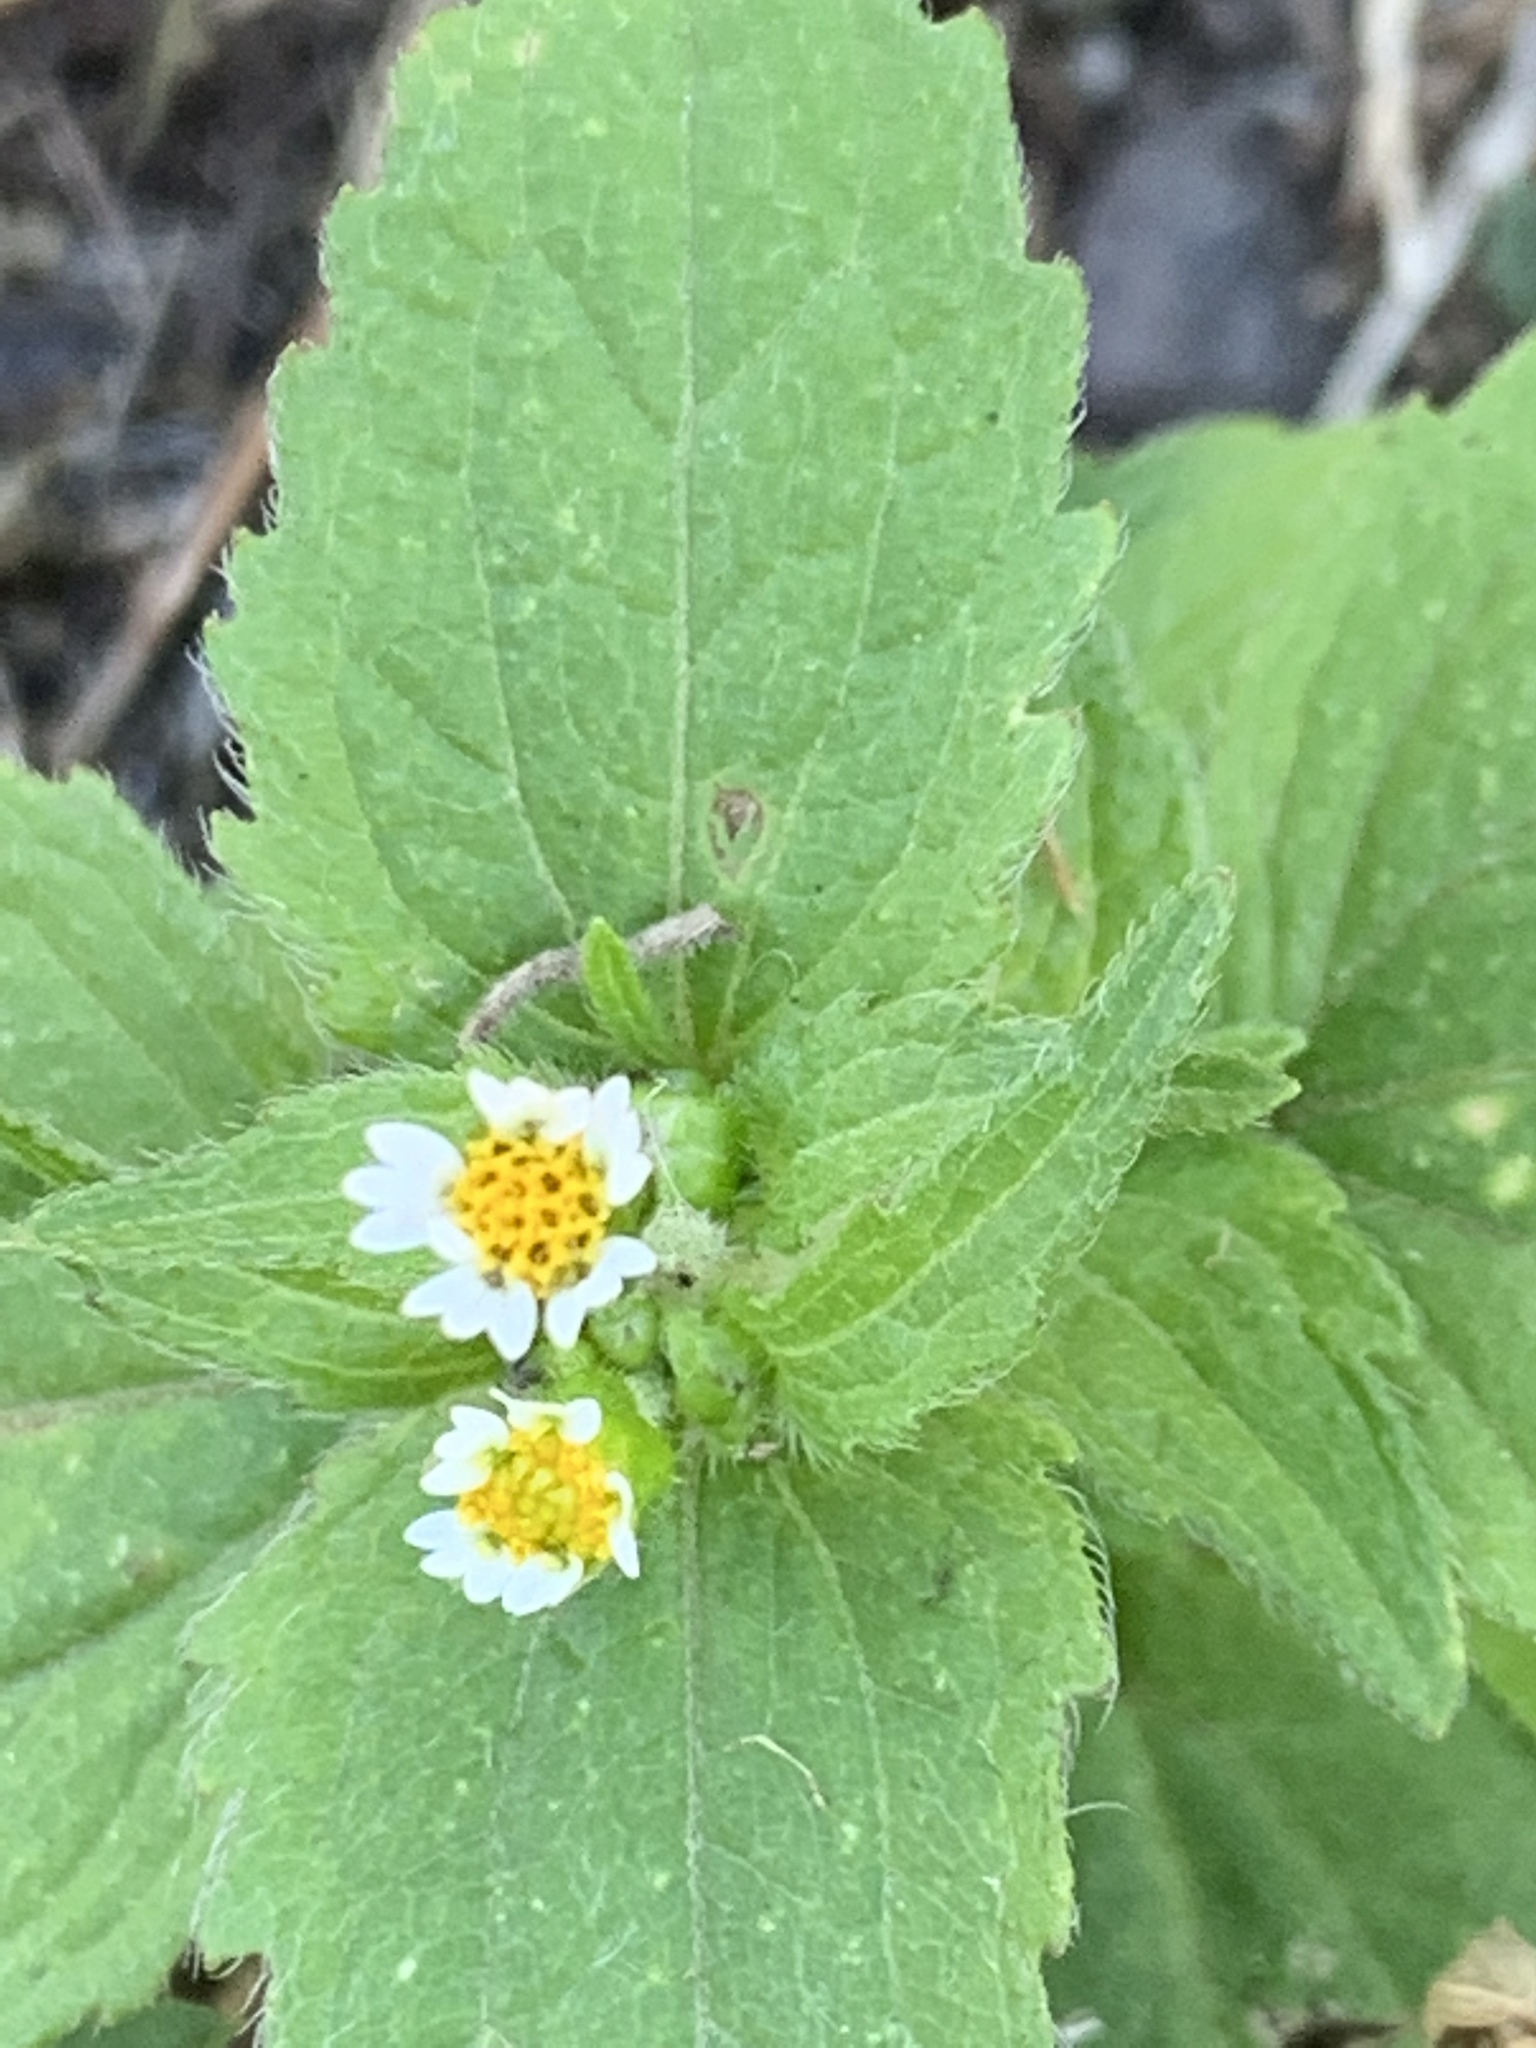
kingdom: Plantae
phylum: Tracheophyta
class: Magnoliopsida
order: Asterales
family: Asteraceae
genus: Galinsoga
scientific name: Galinsoga quadriradiata
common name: Shaggy soldier
